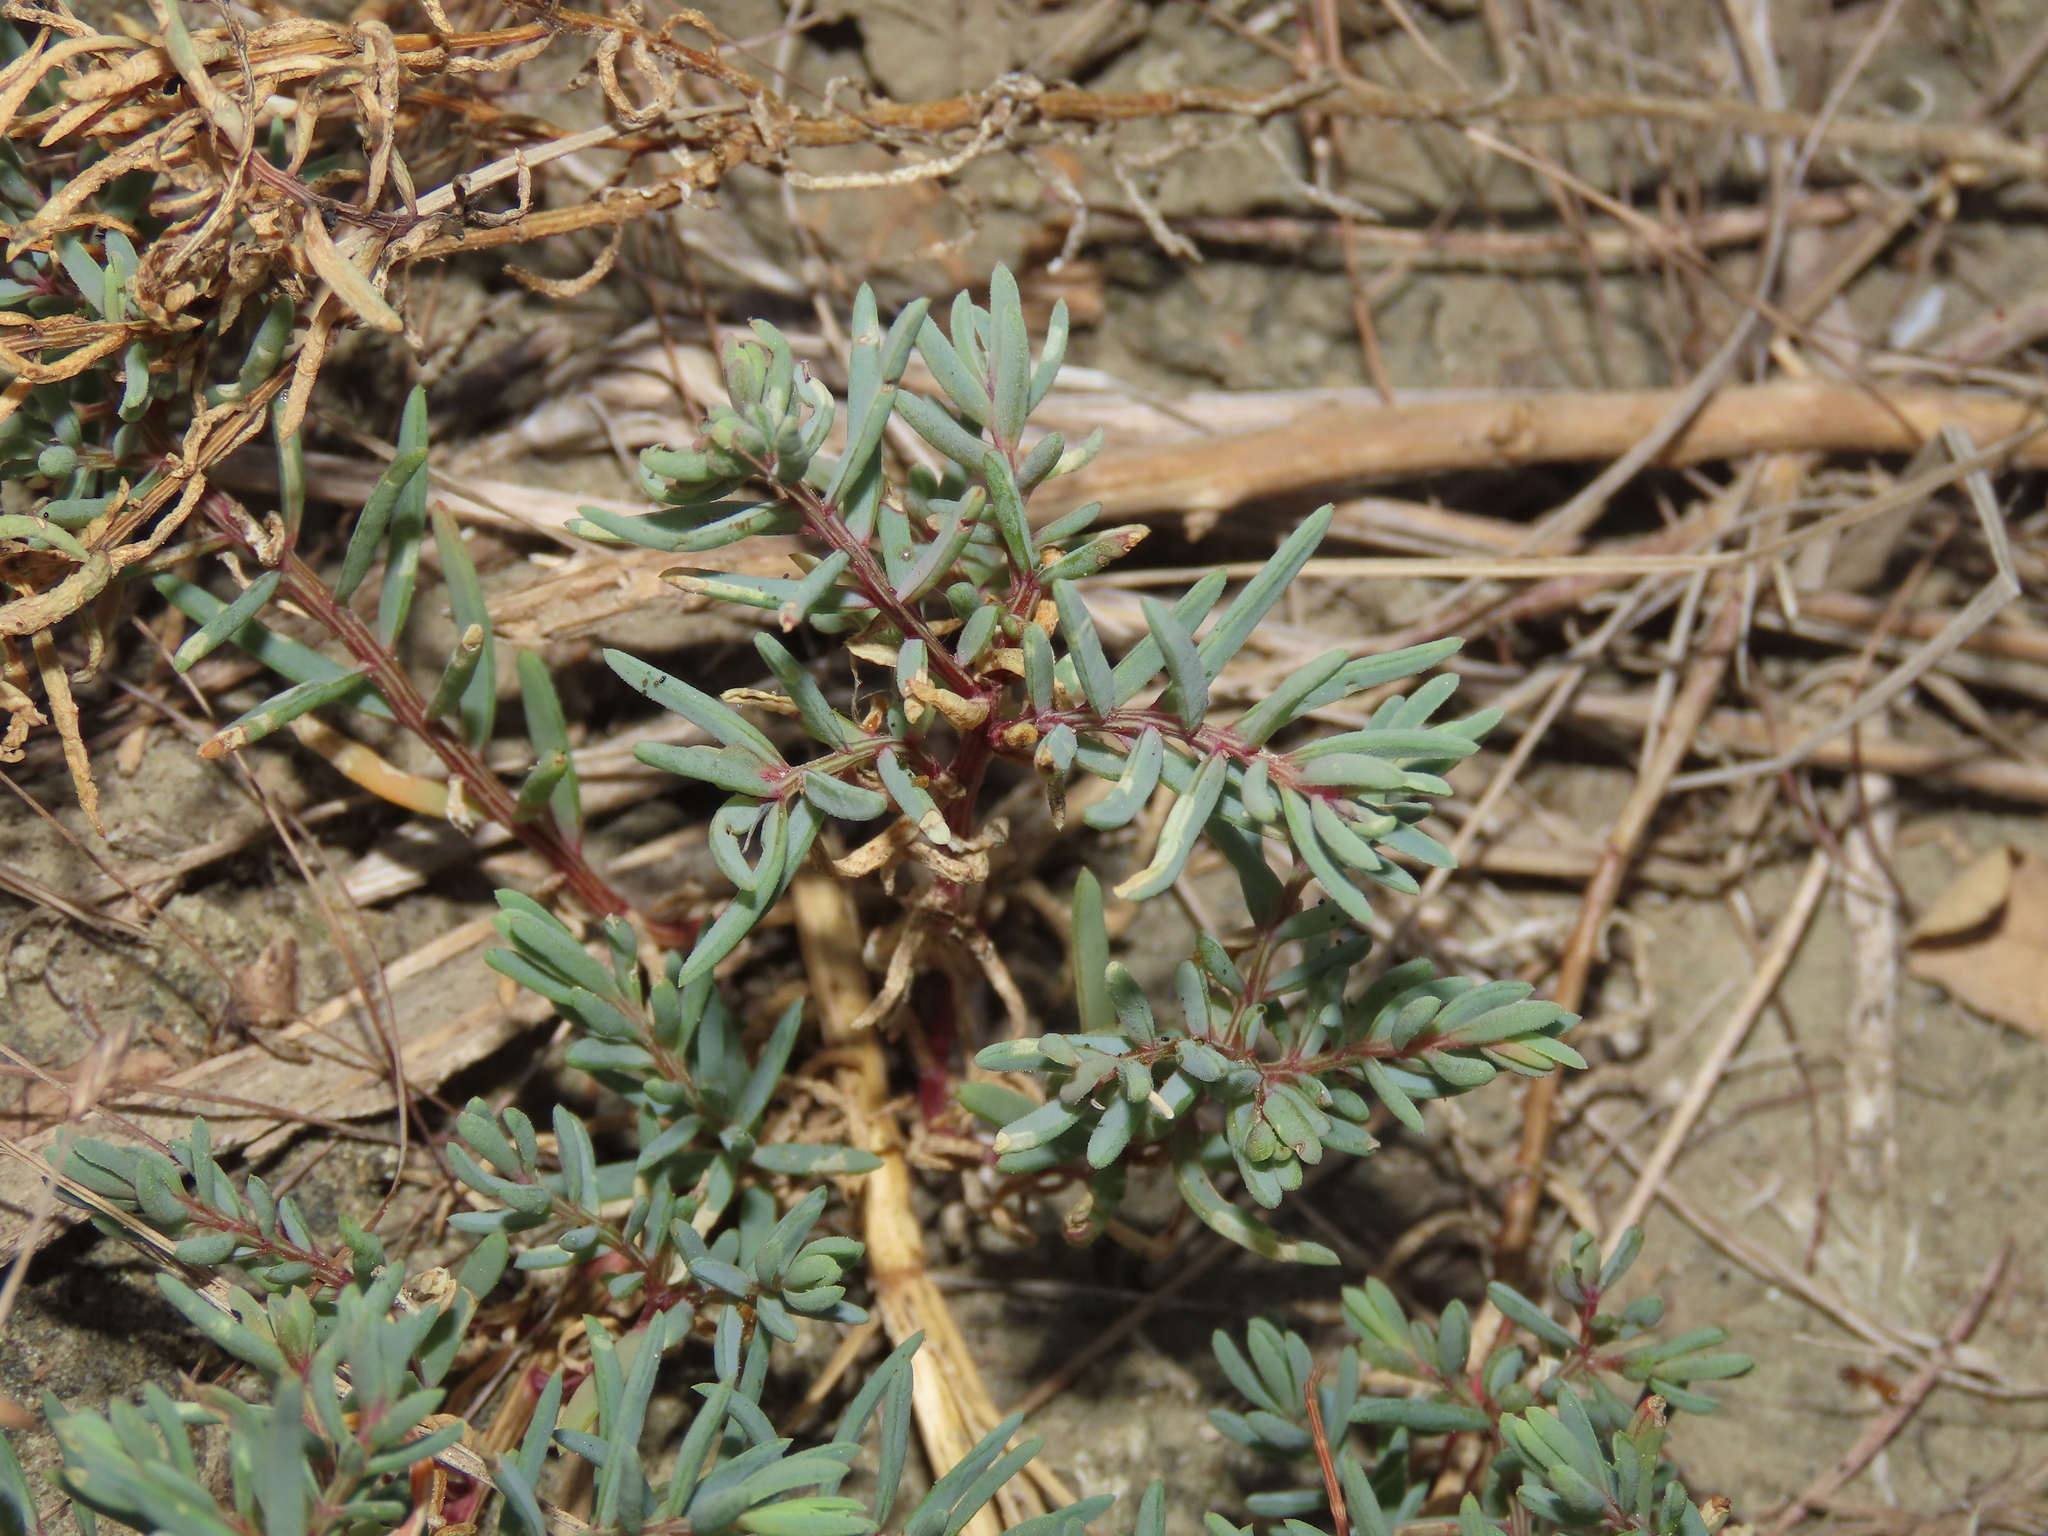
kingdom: Plantae
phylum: Tracheophyta
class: Magnoliopsida
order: Caryophyllales
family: Amaranthaceae
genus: Suaeda
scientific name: Suaeda maritima
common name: Annual sea-blite
